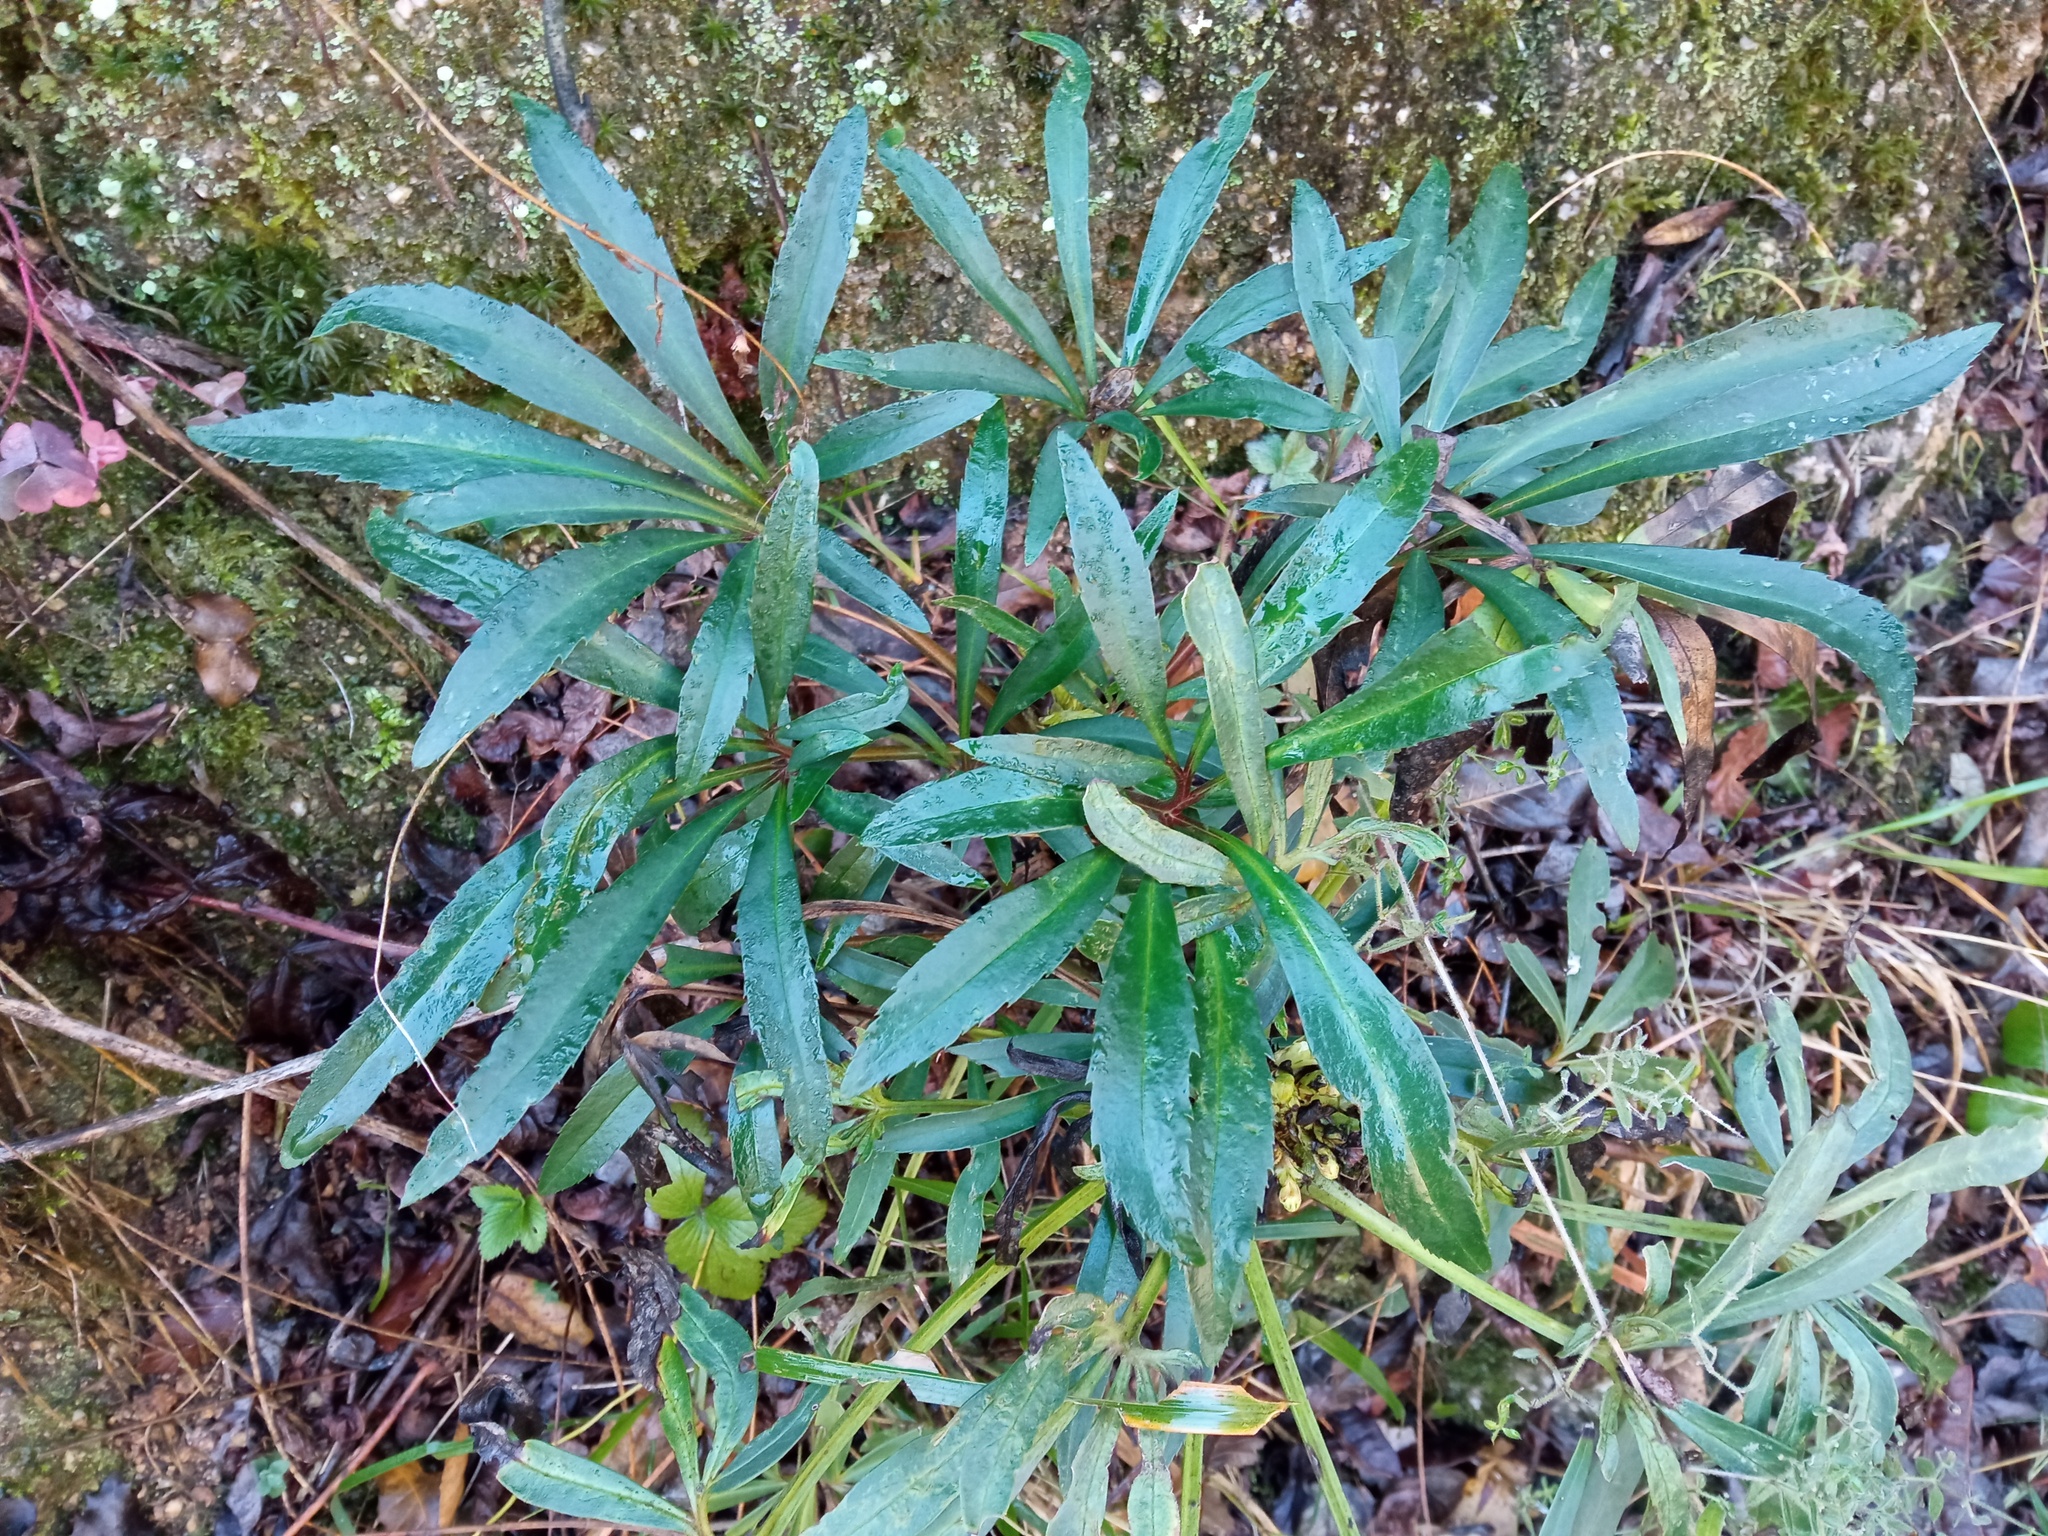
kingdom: Plantae
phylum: Tracheophyta
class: Magnoliopsida
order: Ranunculales
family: Ranunculaceae
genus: Helleborus
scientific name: Helleborus foetidus
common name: Stinking hellebore
